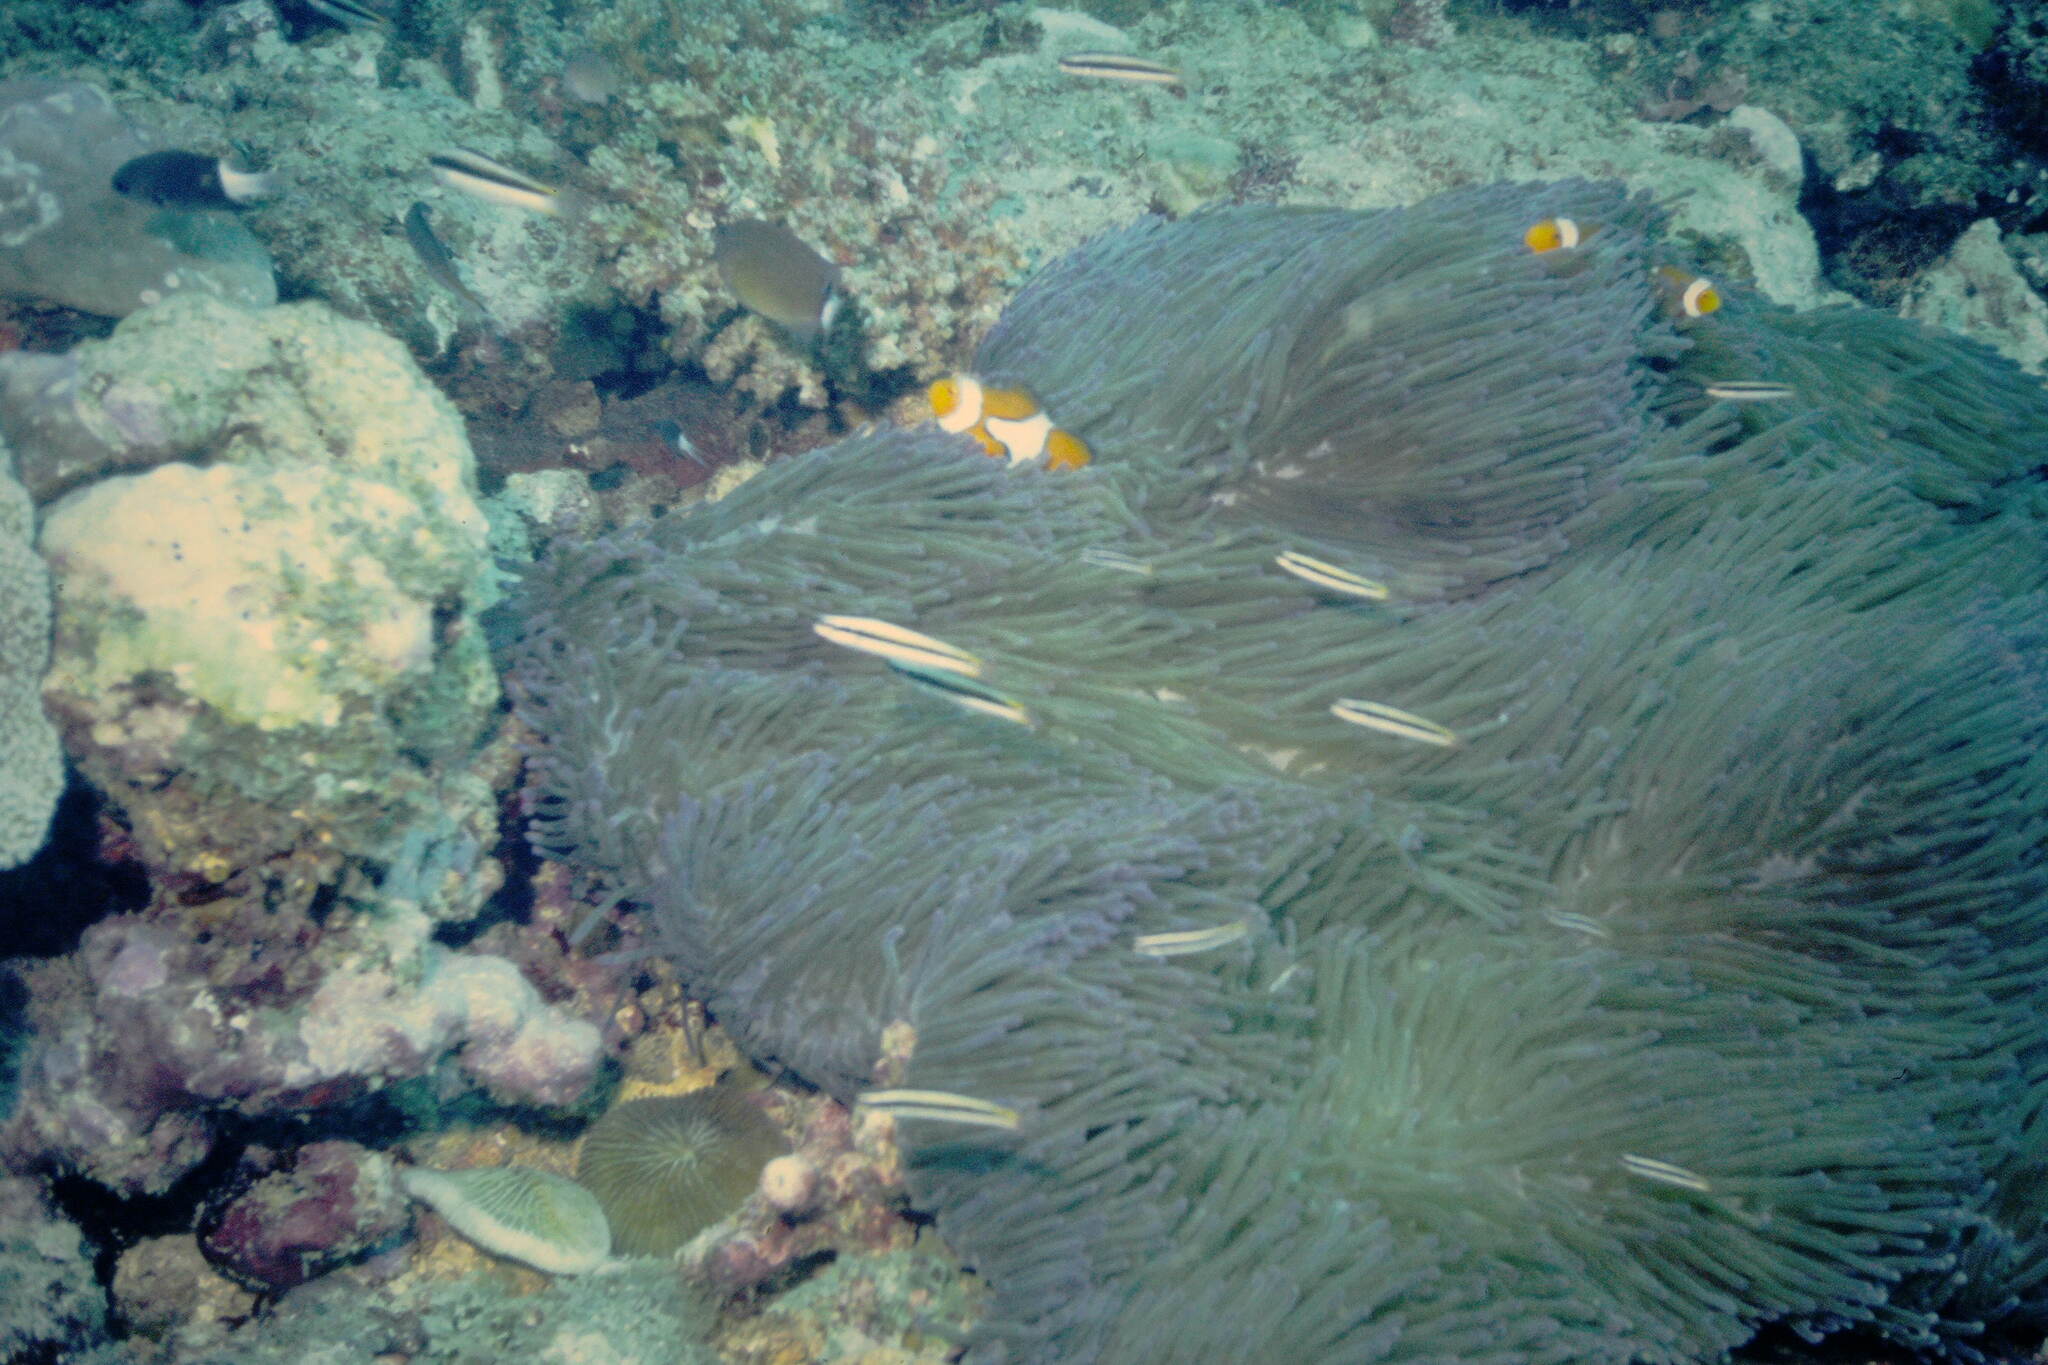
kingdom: Animalia
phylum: Chordata
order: Perciformes
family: Labridae
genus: Thalassoma
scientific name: Thalassoma amblycephalum
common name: Bluehead wrasse
